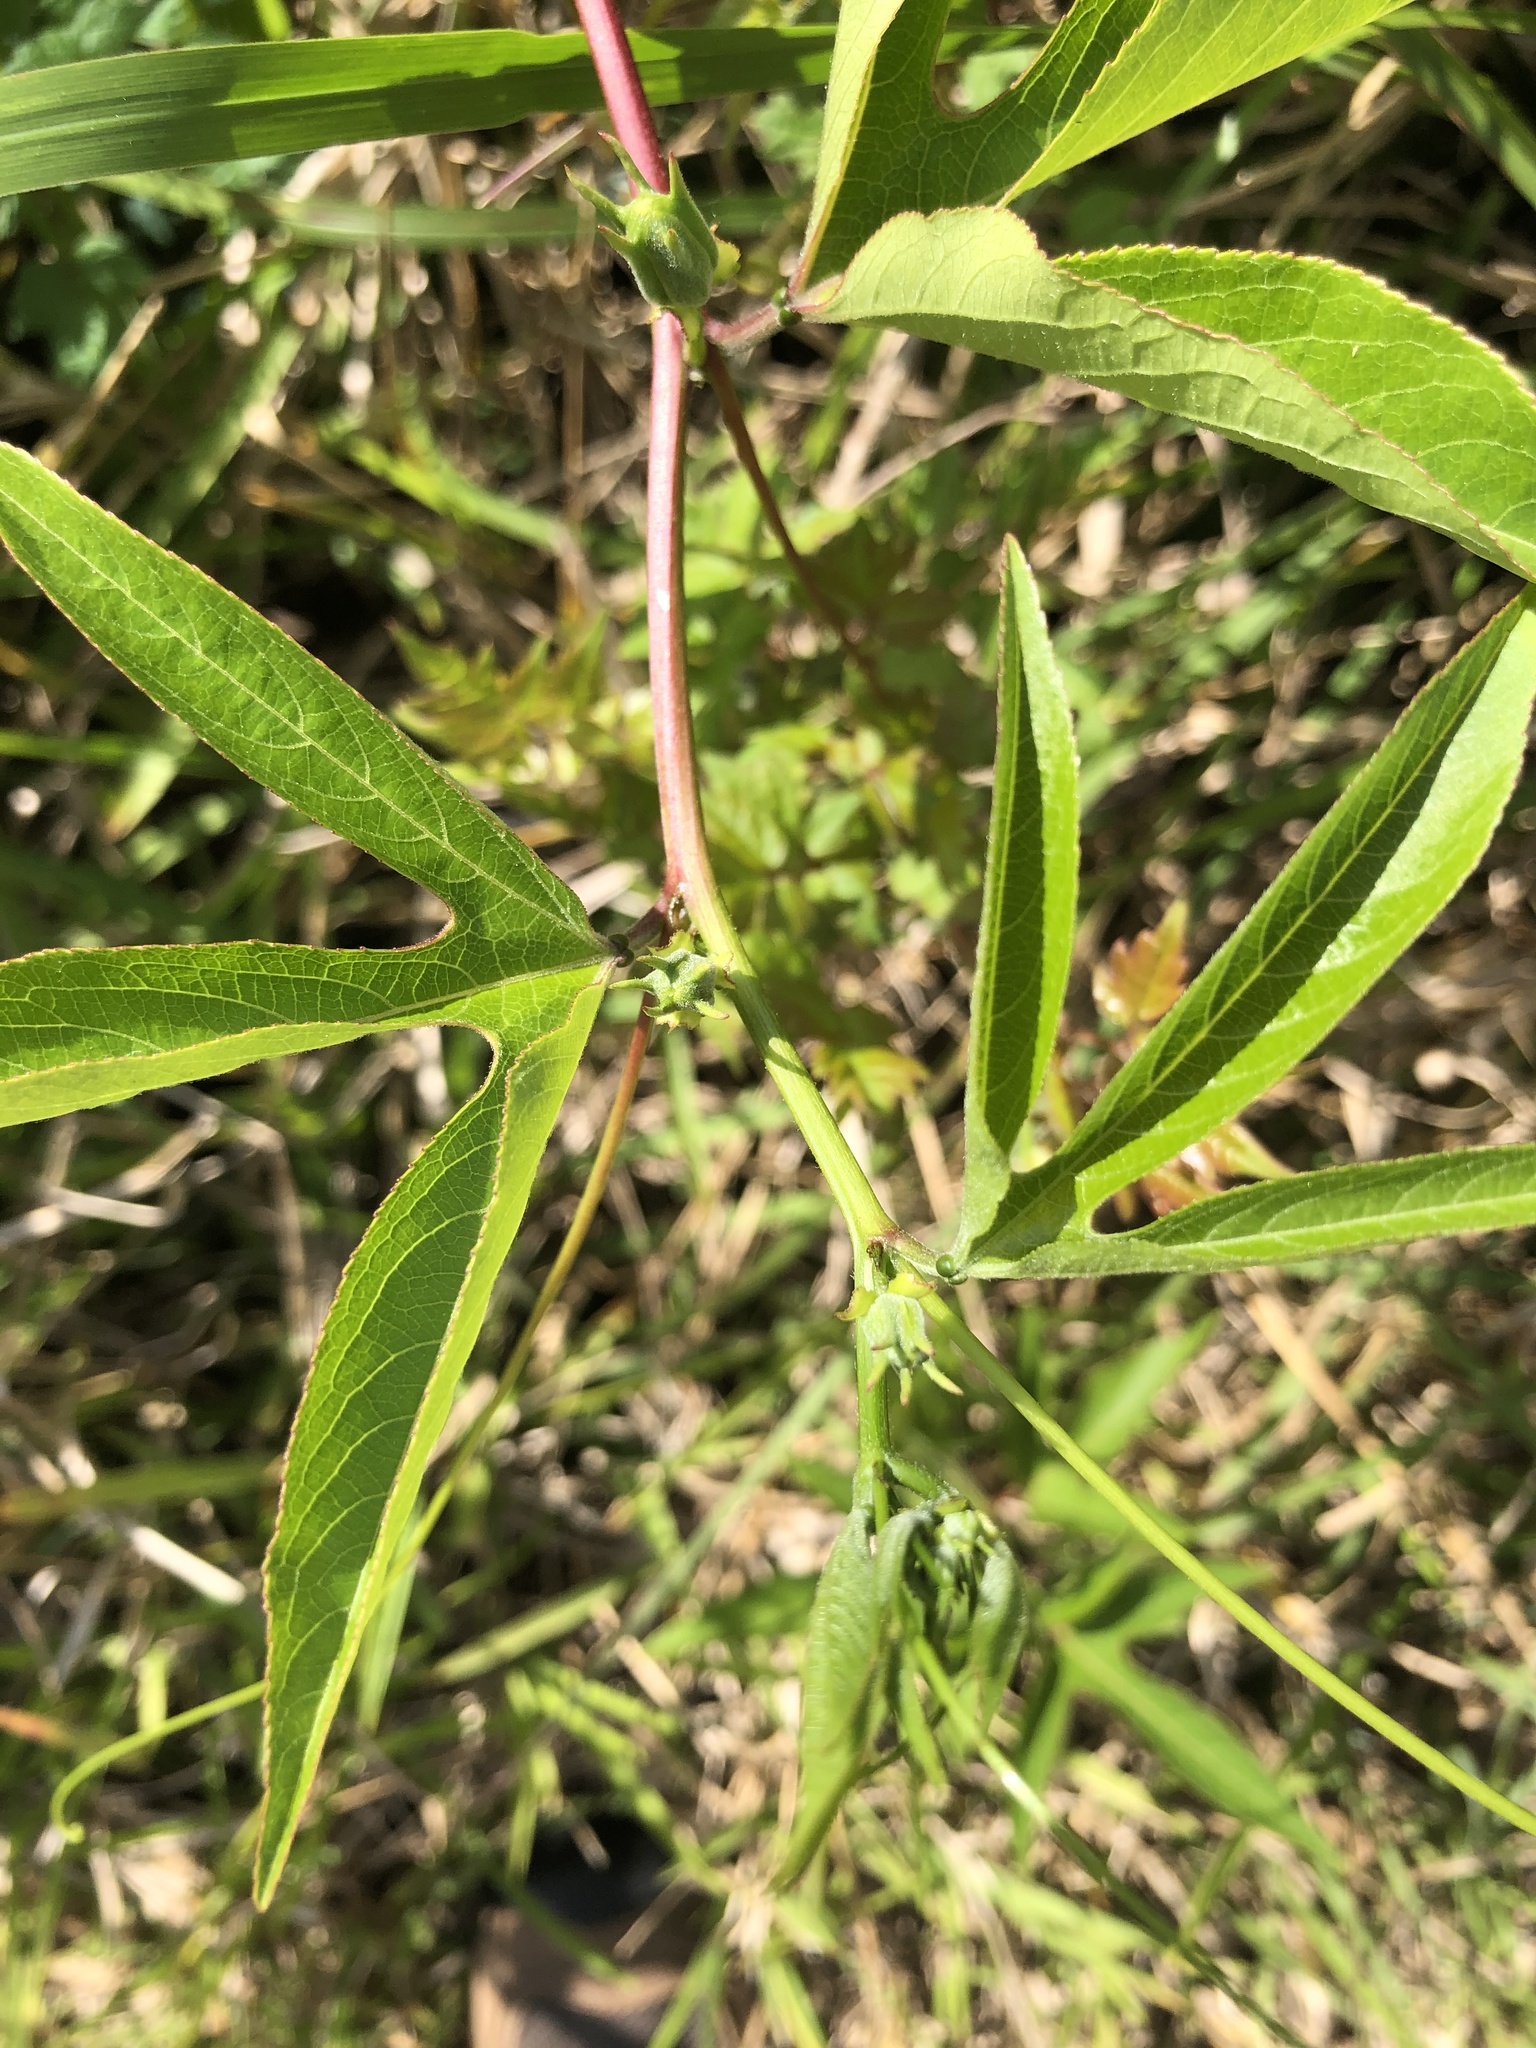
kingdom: Plantae
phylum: Tracheophyta
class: Magnoliopsida
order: Malpighiales
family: Passifloraceae
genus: Passiflora
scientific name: Passiflora incarnata
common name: Apricot-vine
